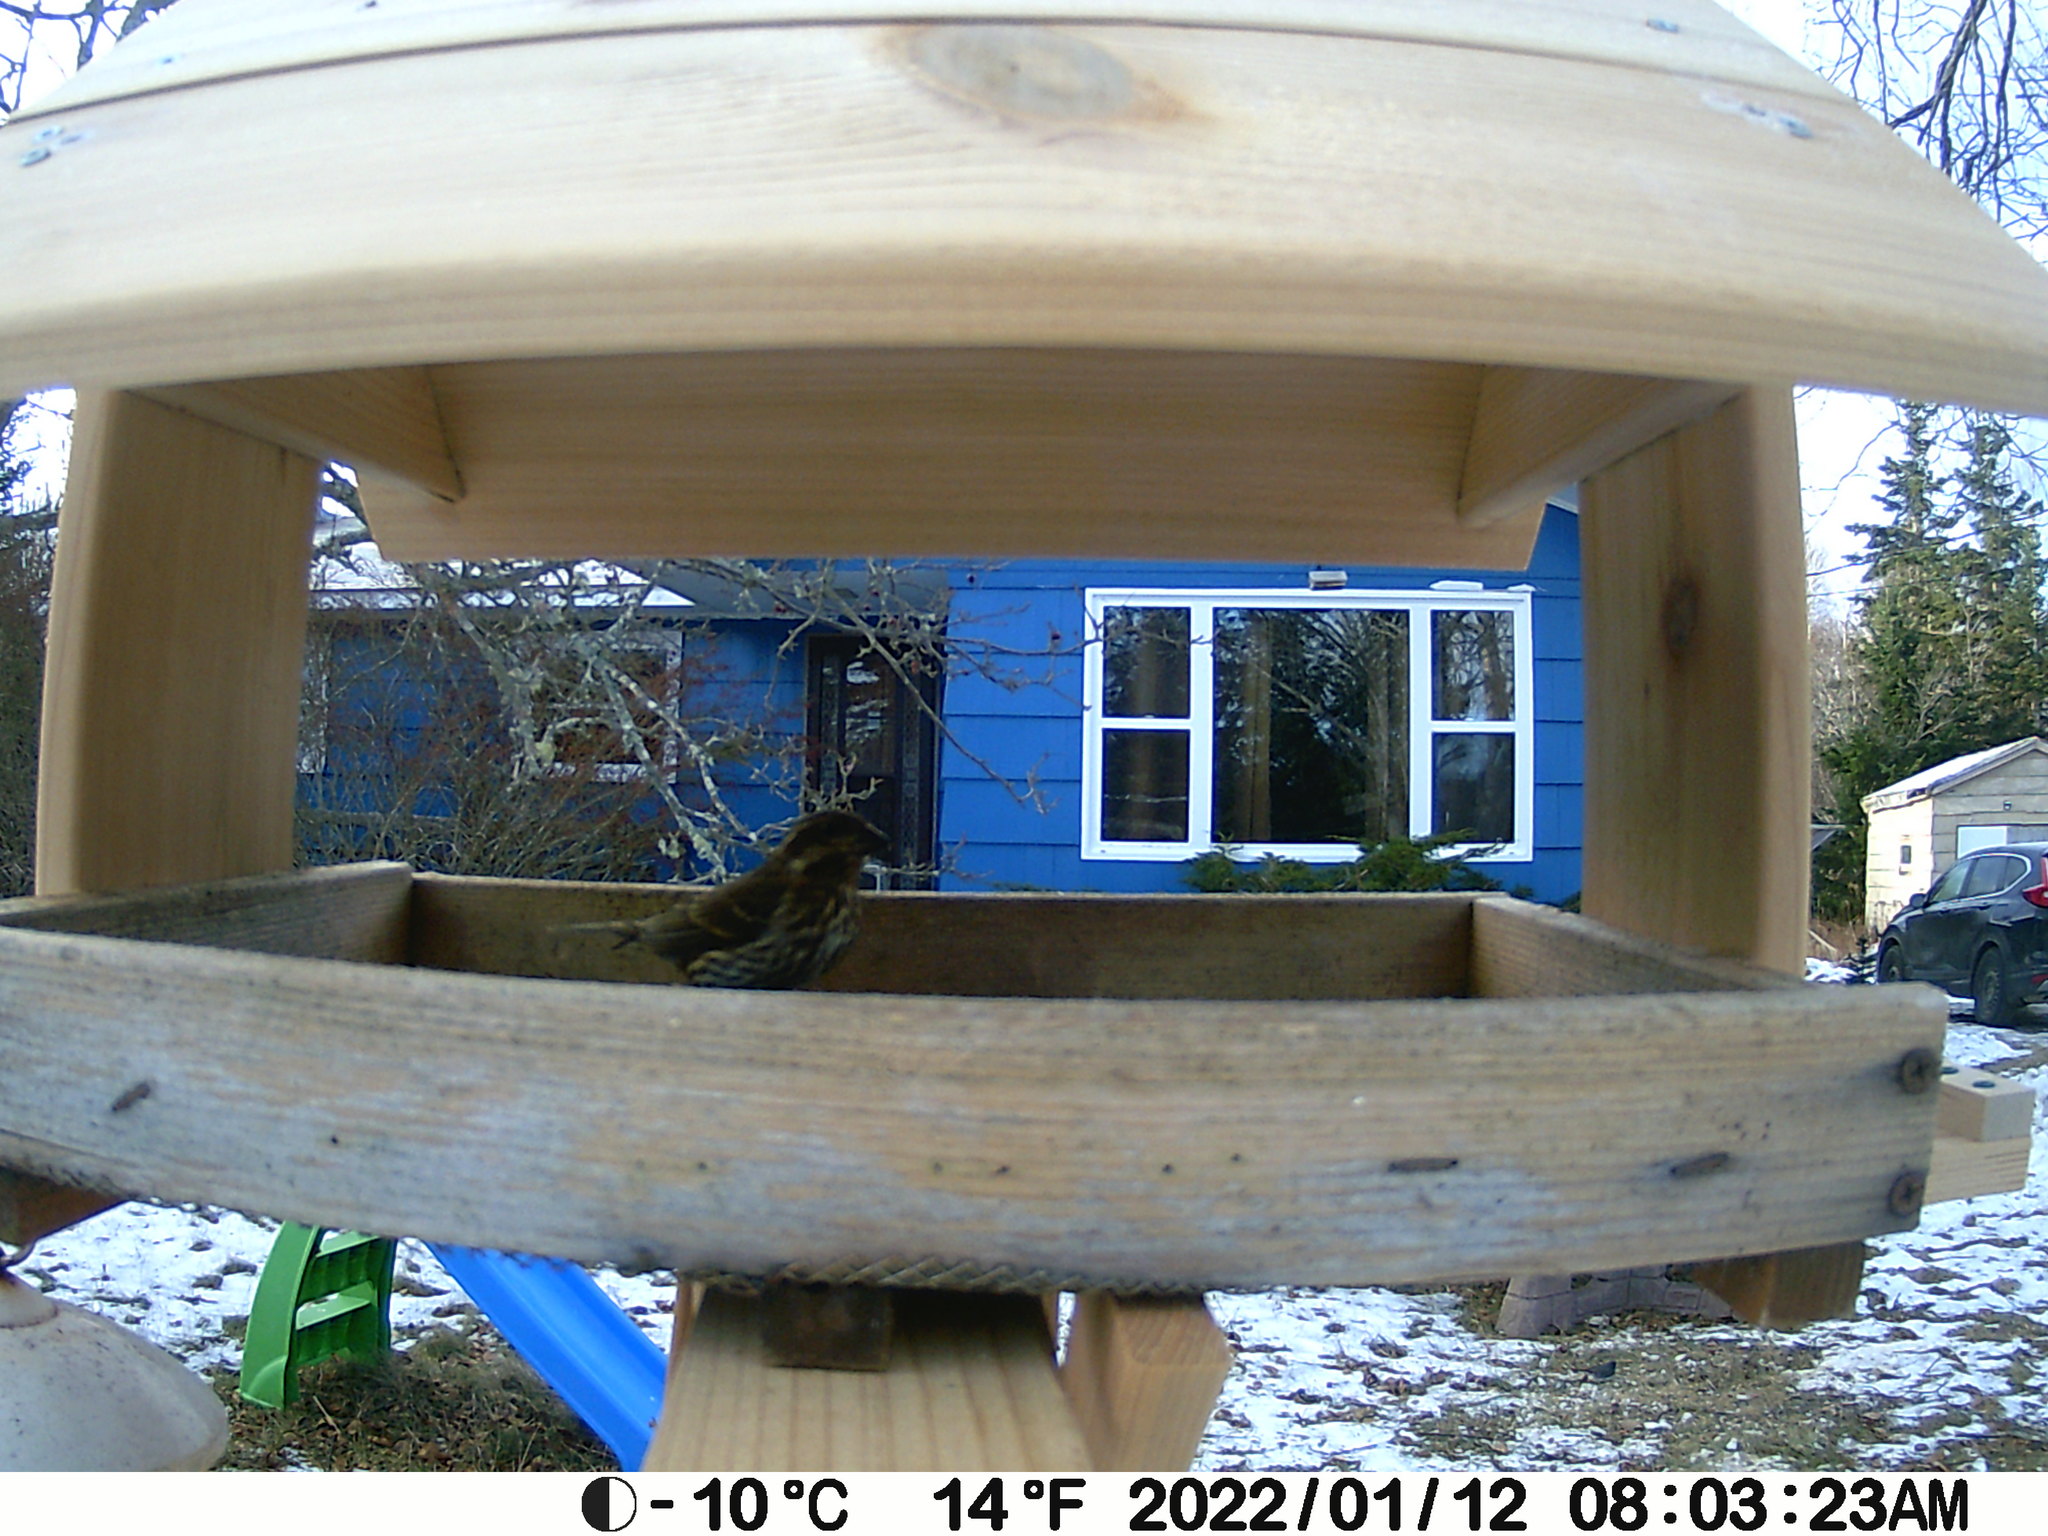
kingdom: Animalia
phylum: Chordata
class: Aves
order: Passeriformes
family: Fringillidae
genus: Haemorhous
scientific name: Haemorhous purpureus
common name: Purple finch
